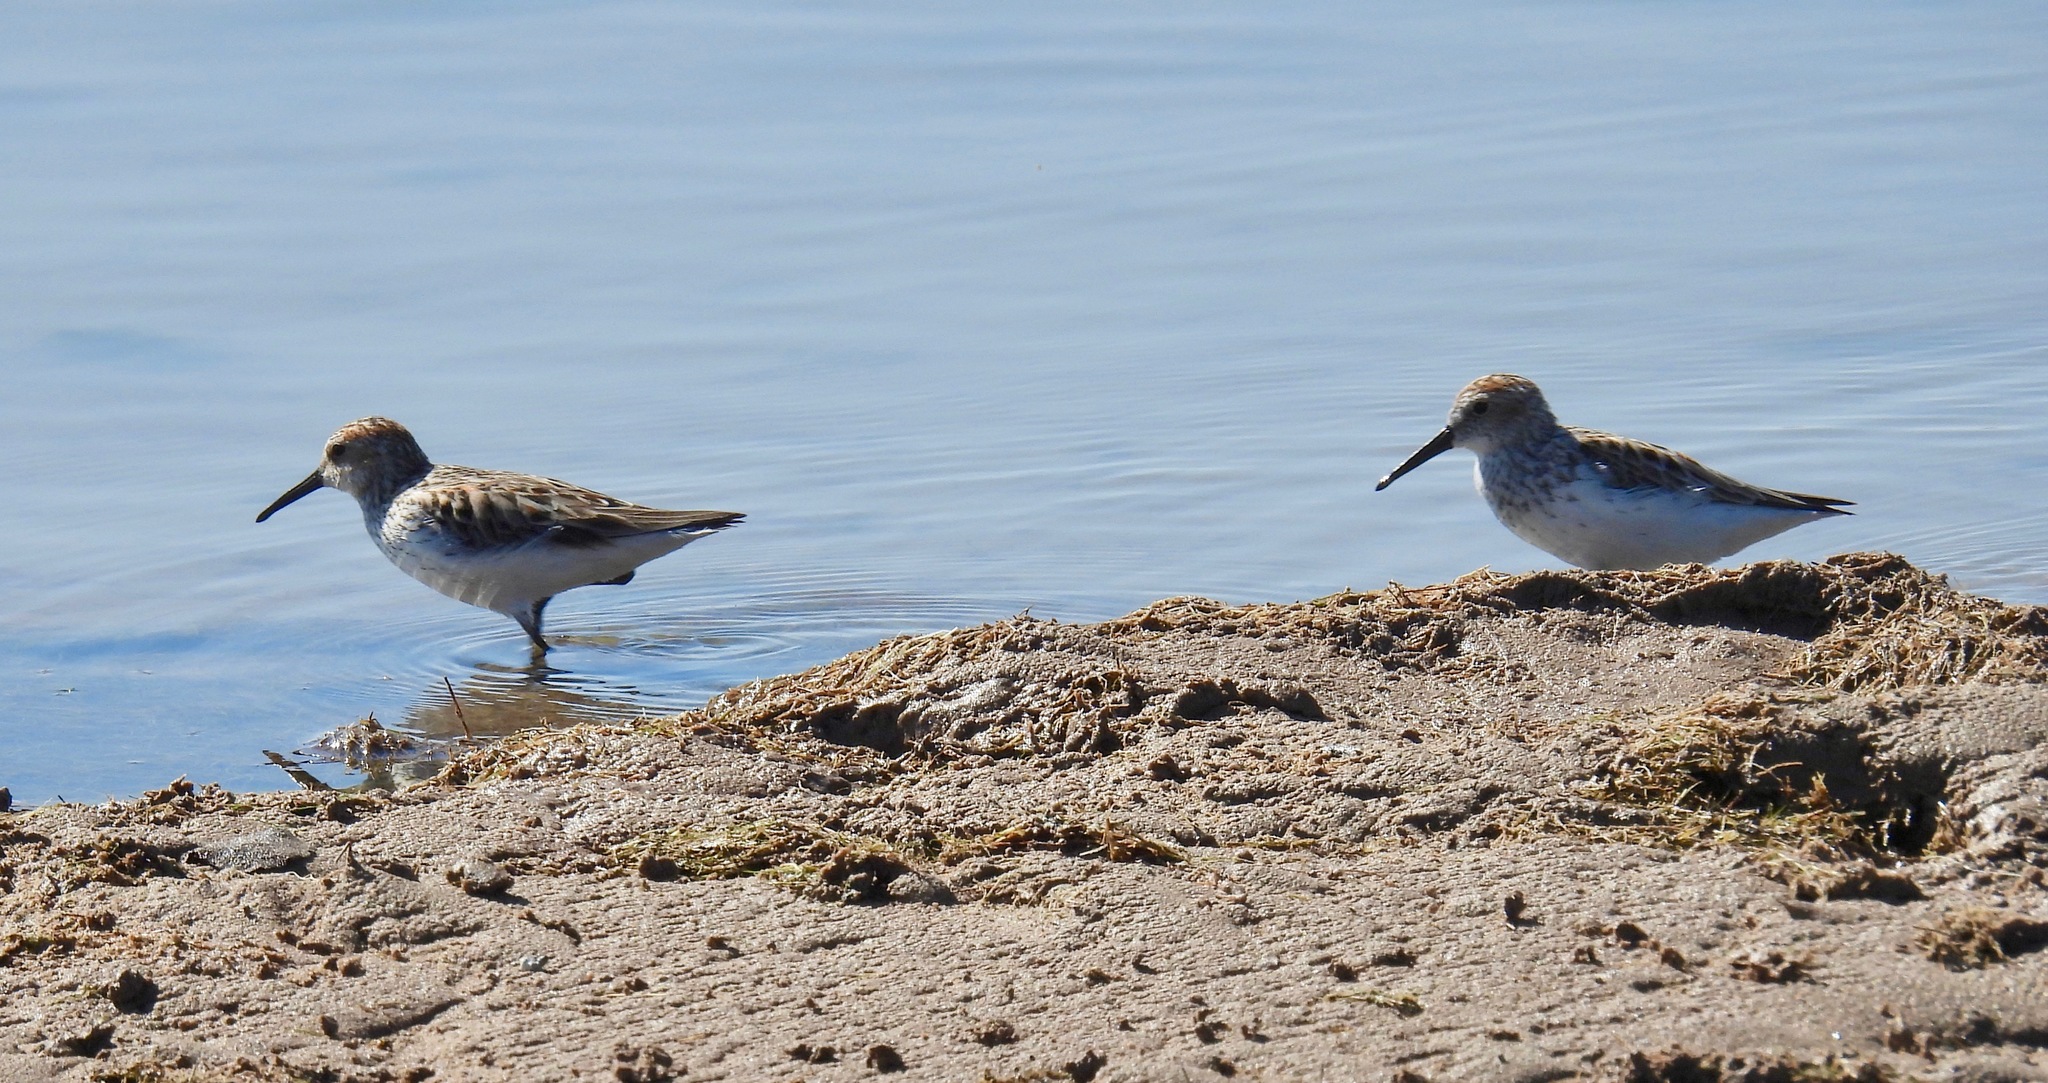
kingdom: Animalia
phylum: Chordata
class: Aves
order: Charadriiformes
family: Scolopacidae
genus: Calidris
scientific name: Calidris mauri
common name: Western sandpiper
